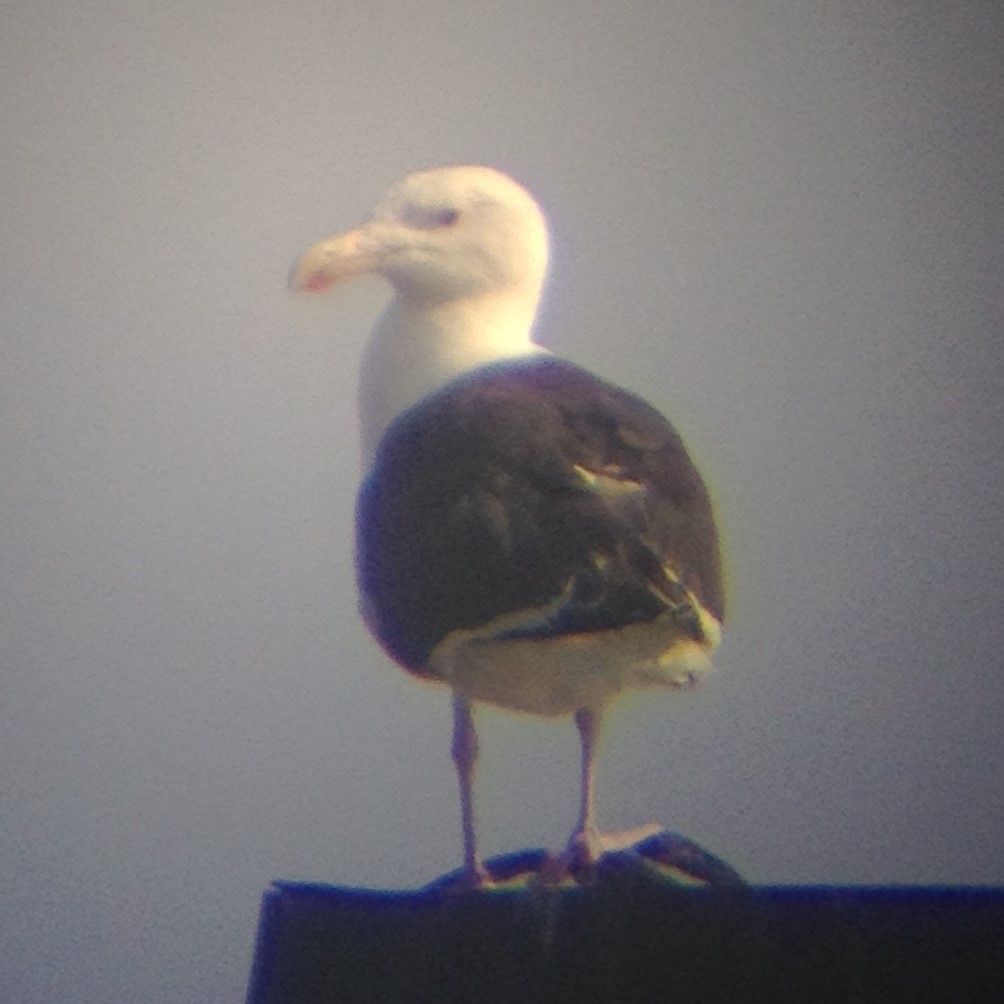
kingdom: Animalia
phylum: Chordata
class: Aves
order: Charadriiformes
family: Laridae
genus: Larus
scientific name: Larus marinus
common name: Great black-backed gull
